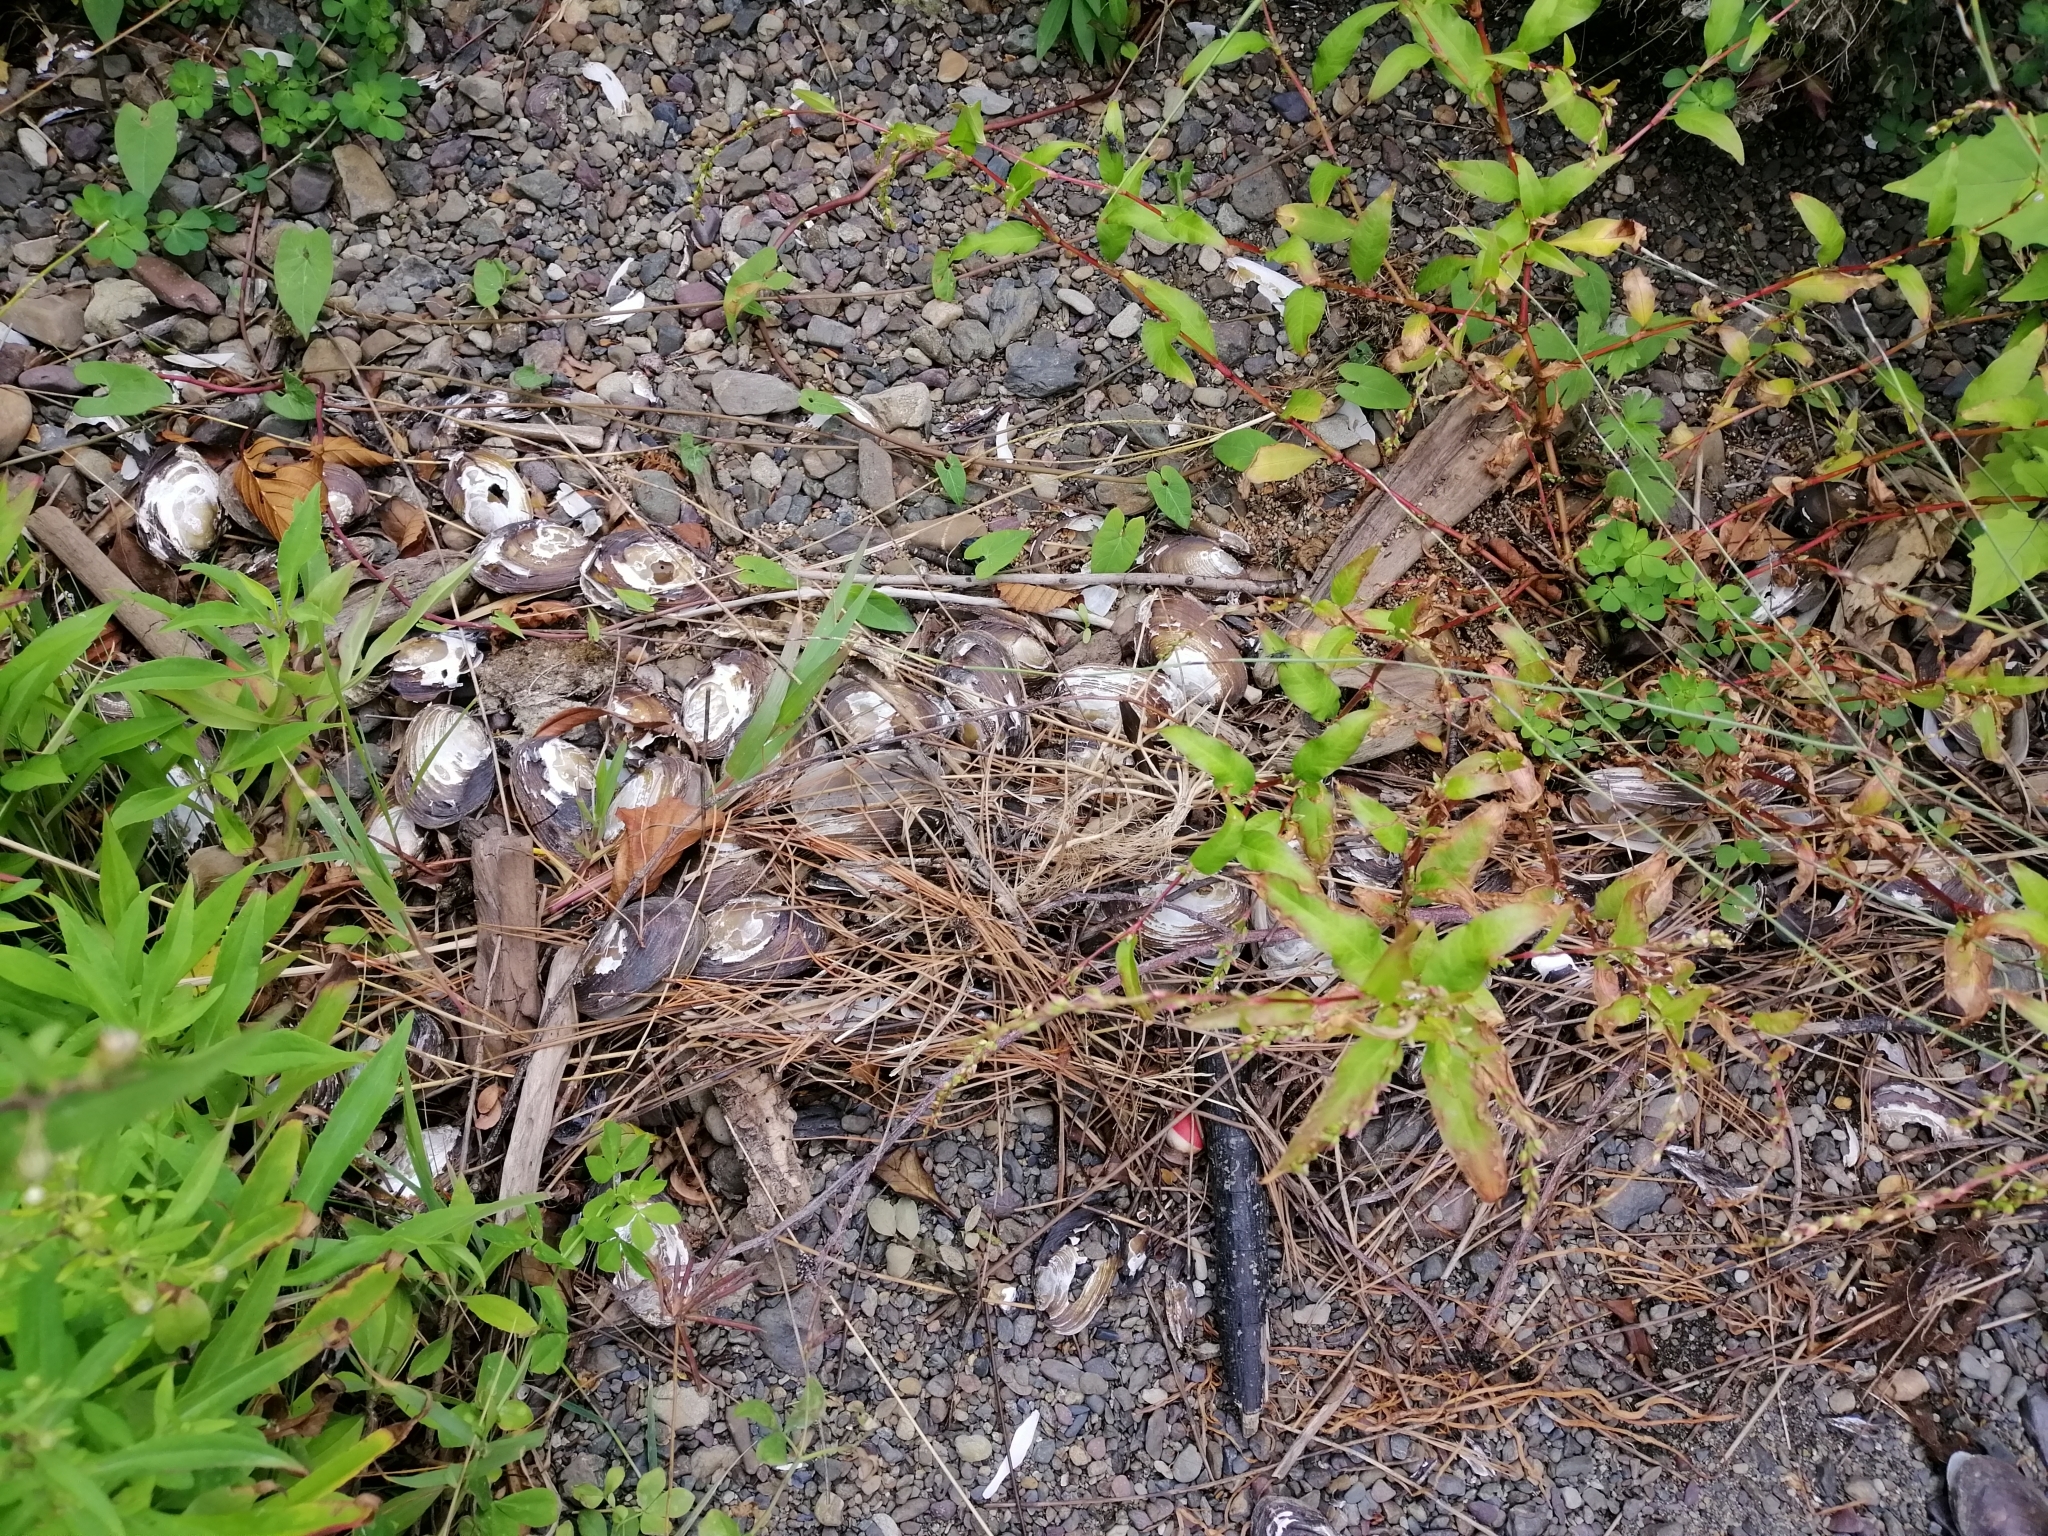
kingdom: Animalia
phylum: Mollusca
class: Bivalvia
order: Unionida
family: Hyriidae
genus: Echyridella
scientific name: Echyridella menziesii
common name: New zealand freshwater mussel
